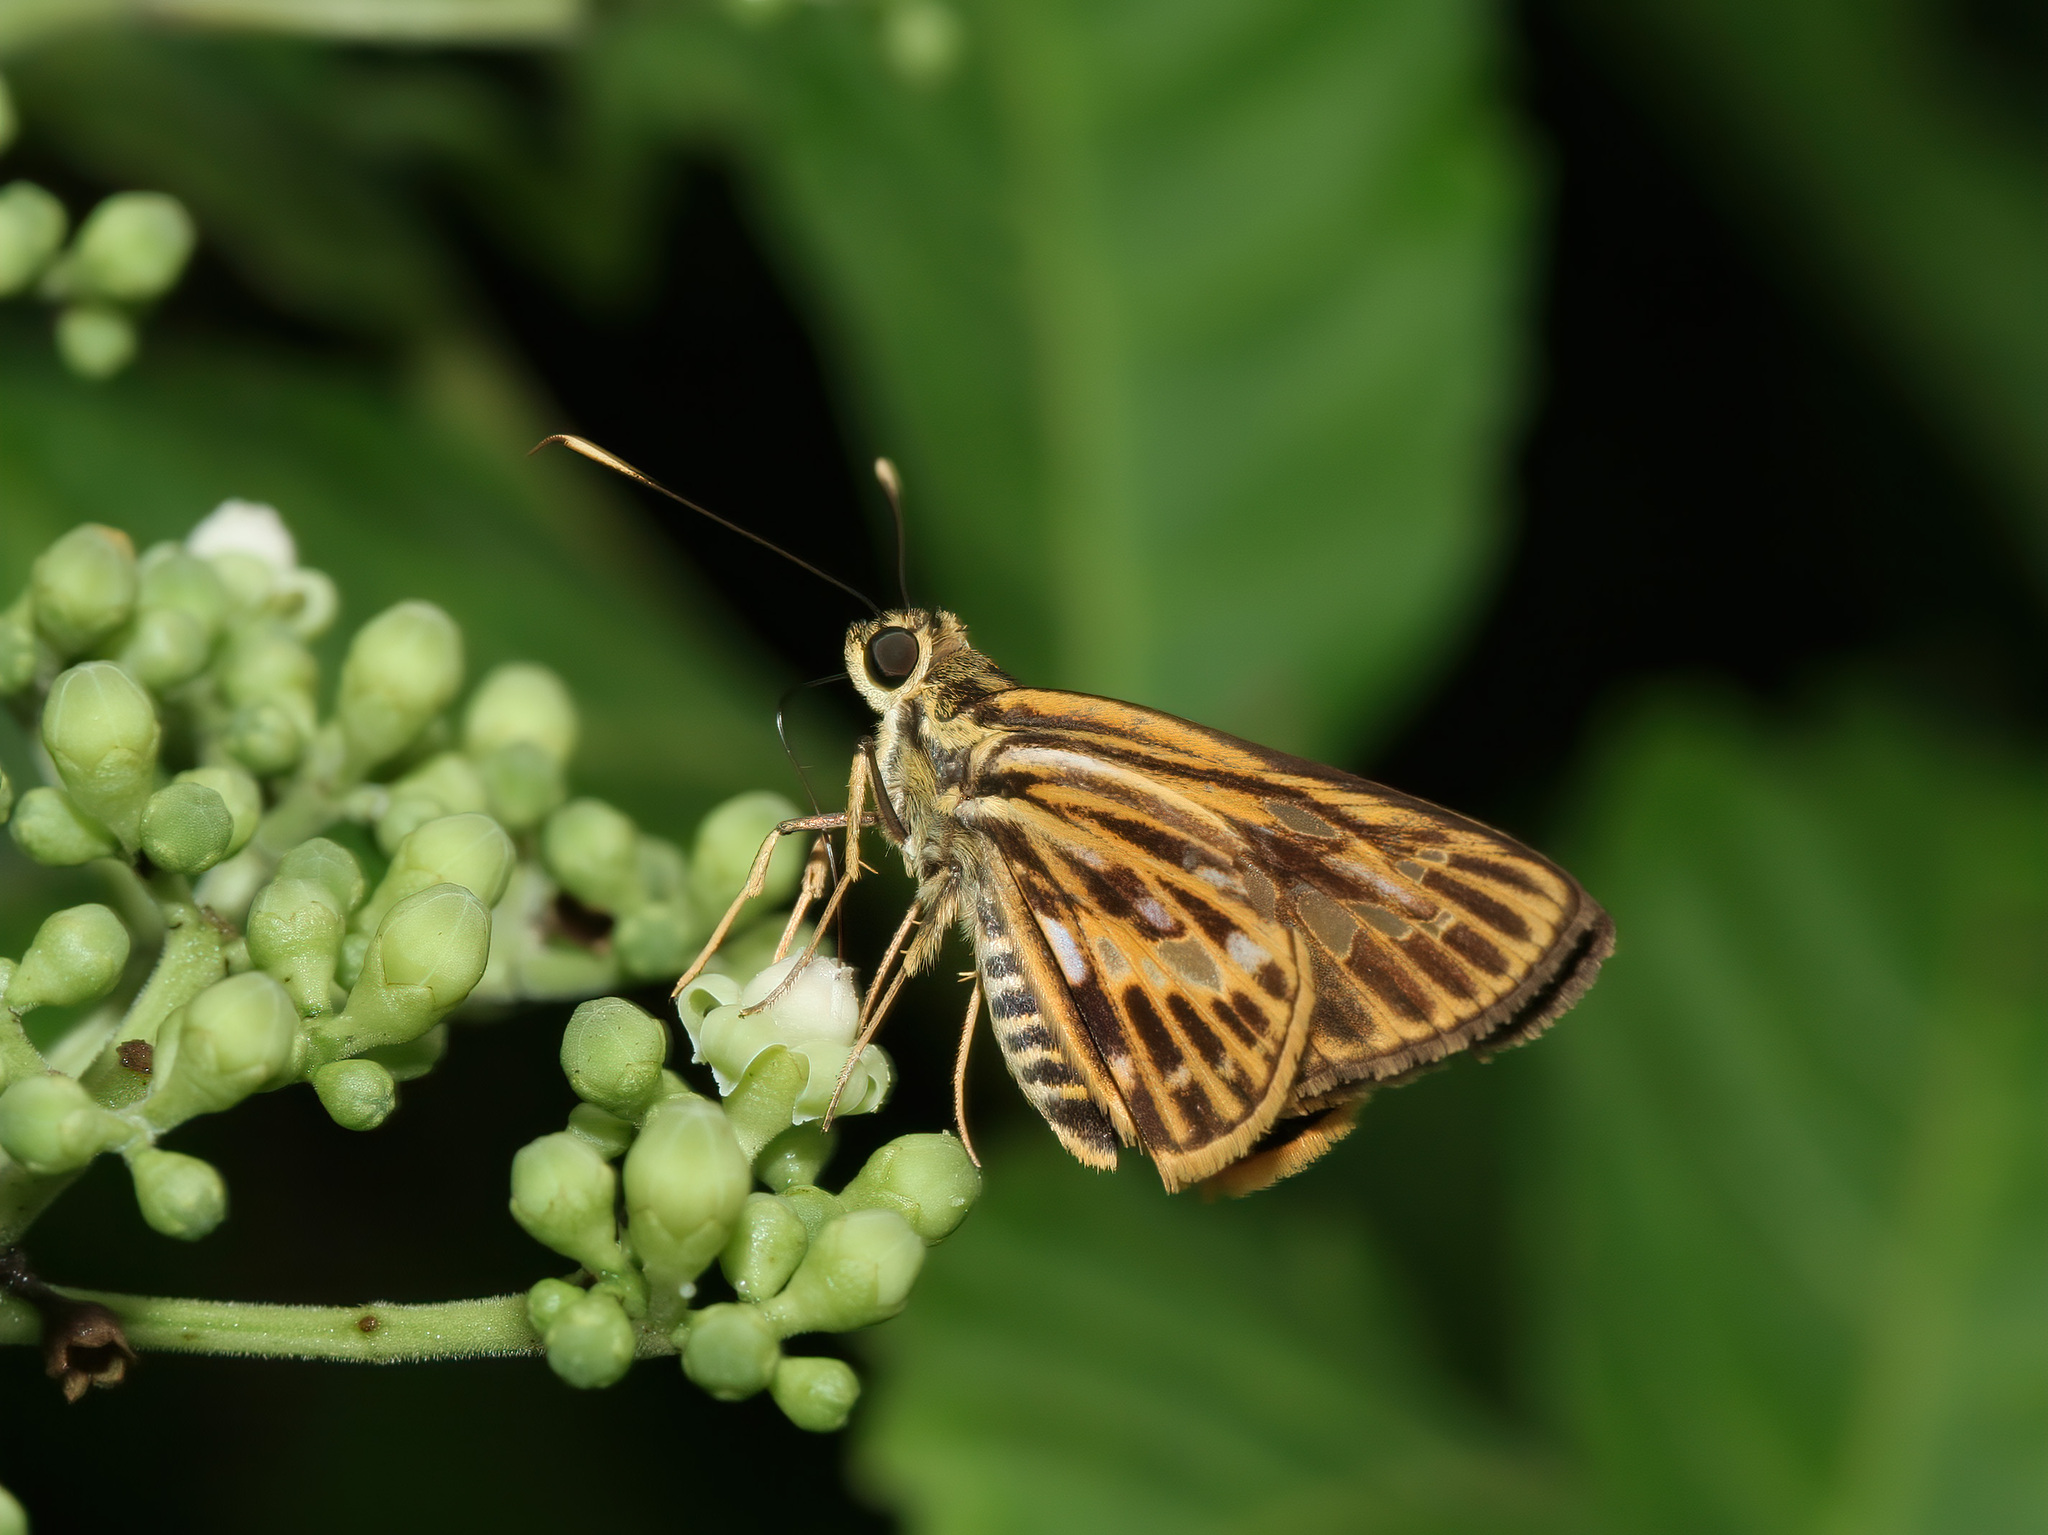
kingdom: Animalia
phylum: Arthropoda
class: Insecta
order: Lepidoptera
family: Hesperiidae
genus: Pyroneura
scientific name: Pyroneura latoia
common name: Yellow vein lancer
